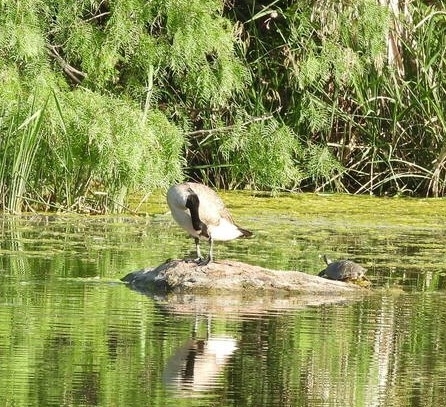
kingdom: Animalia
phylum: Chordata
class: Aves
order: Anseriformes
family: Anatidae
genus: Branta
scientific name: Branta canadensis
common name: Canada goose
